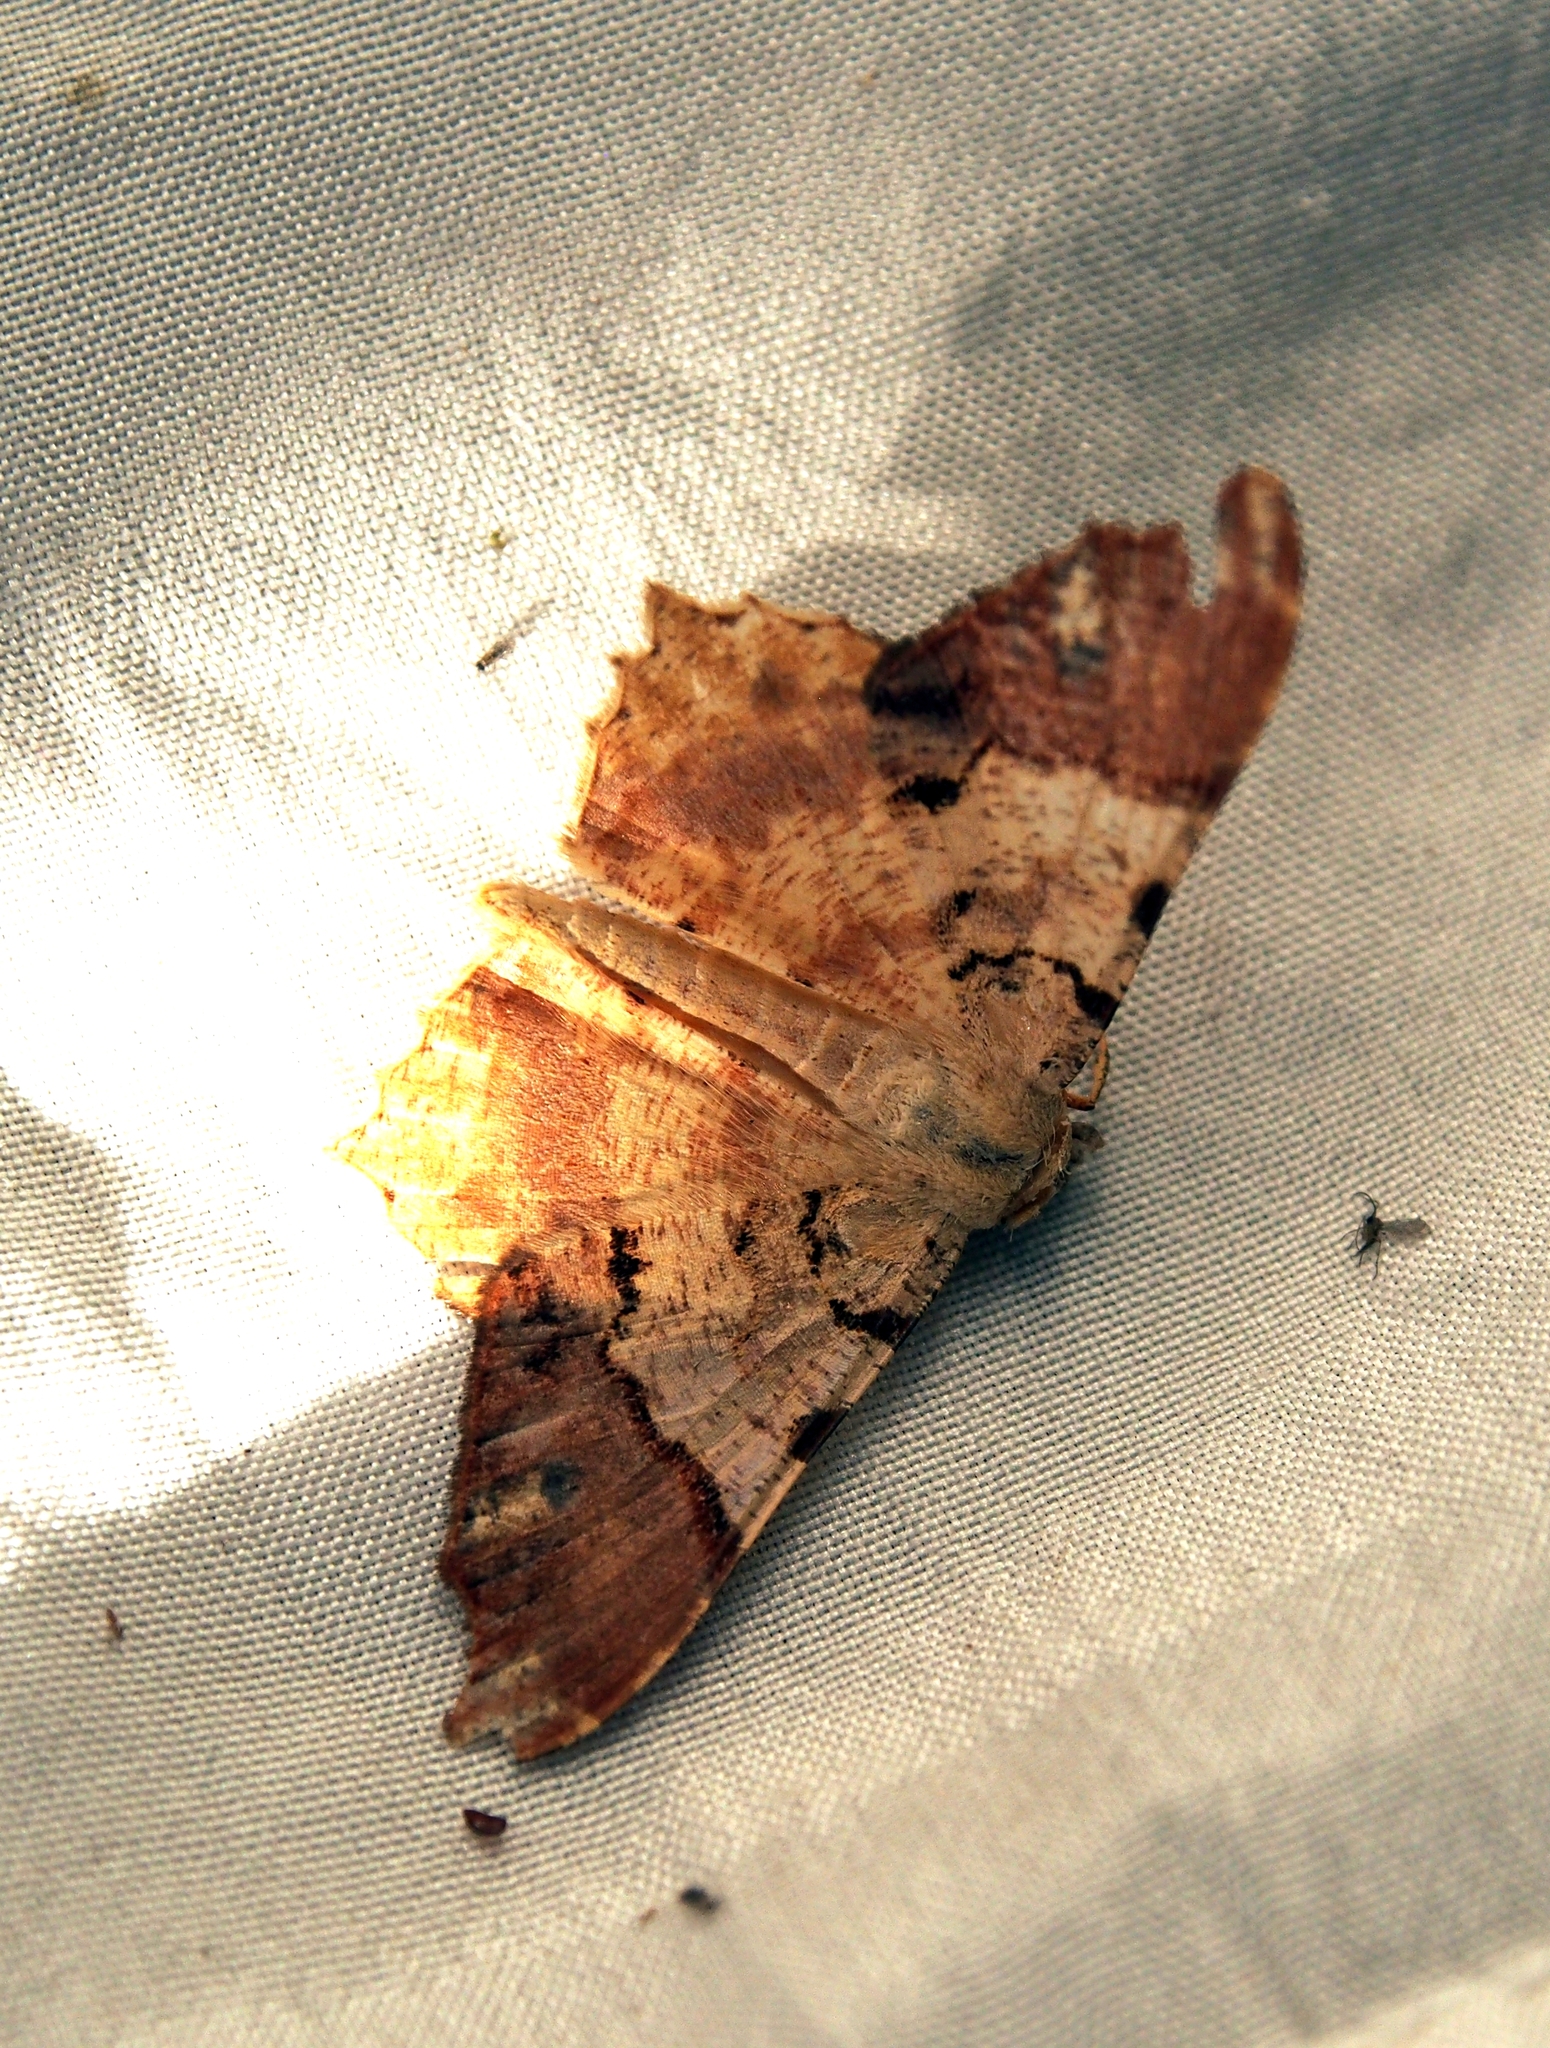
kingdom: Animalia
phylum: Arthropoda
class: Insecta
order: Lepidoptera
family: Geometridae
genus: Macaria
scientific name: Macaria approximaria
